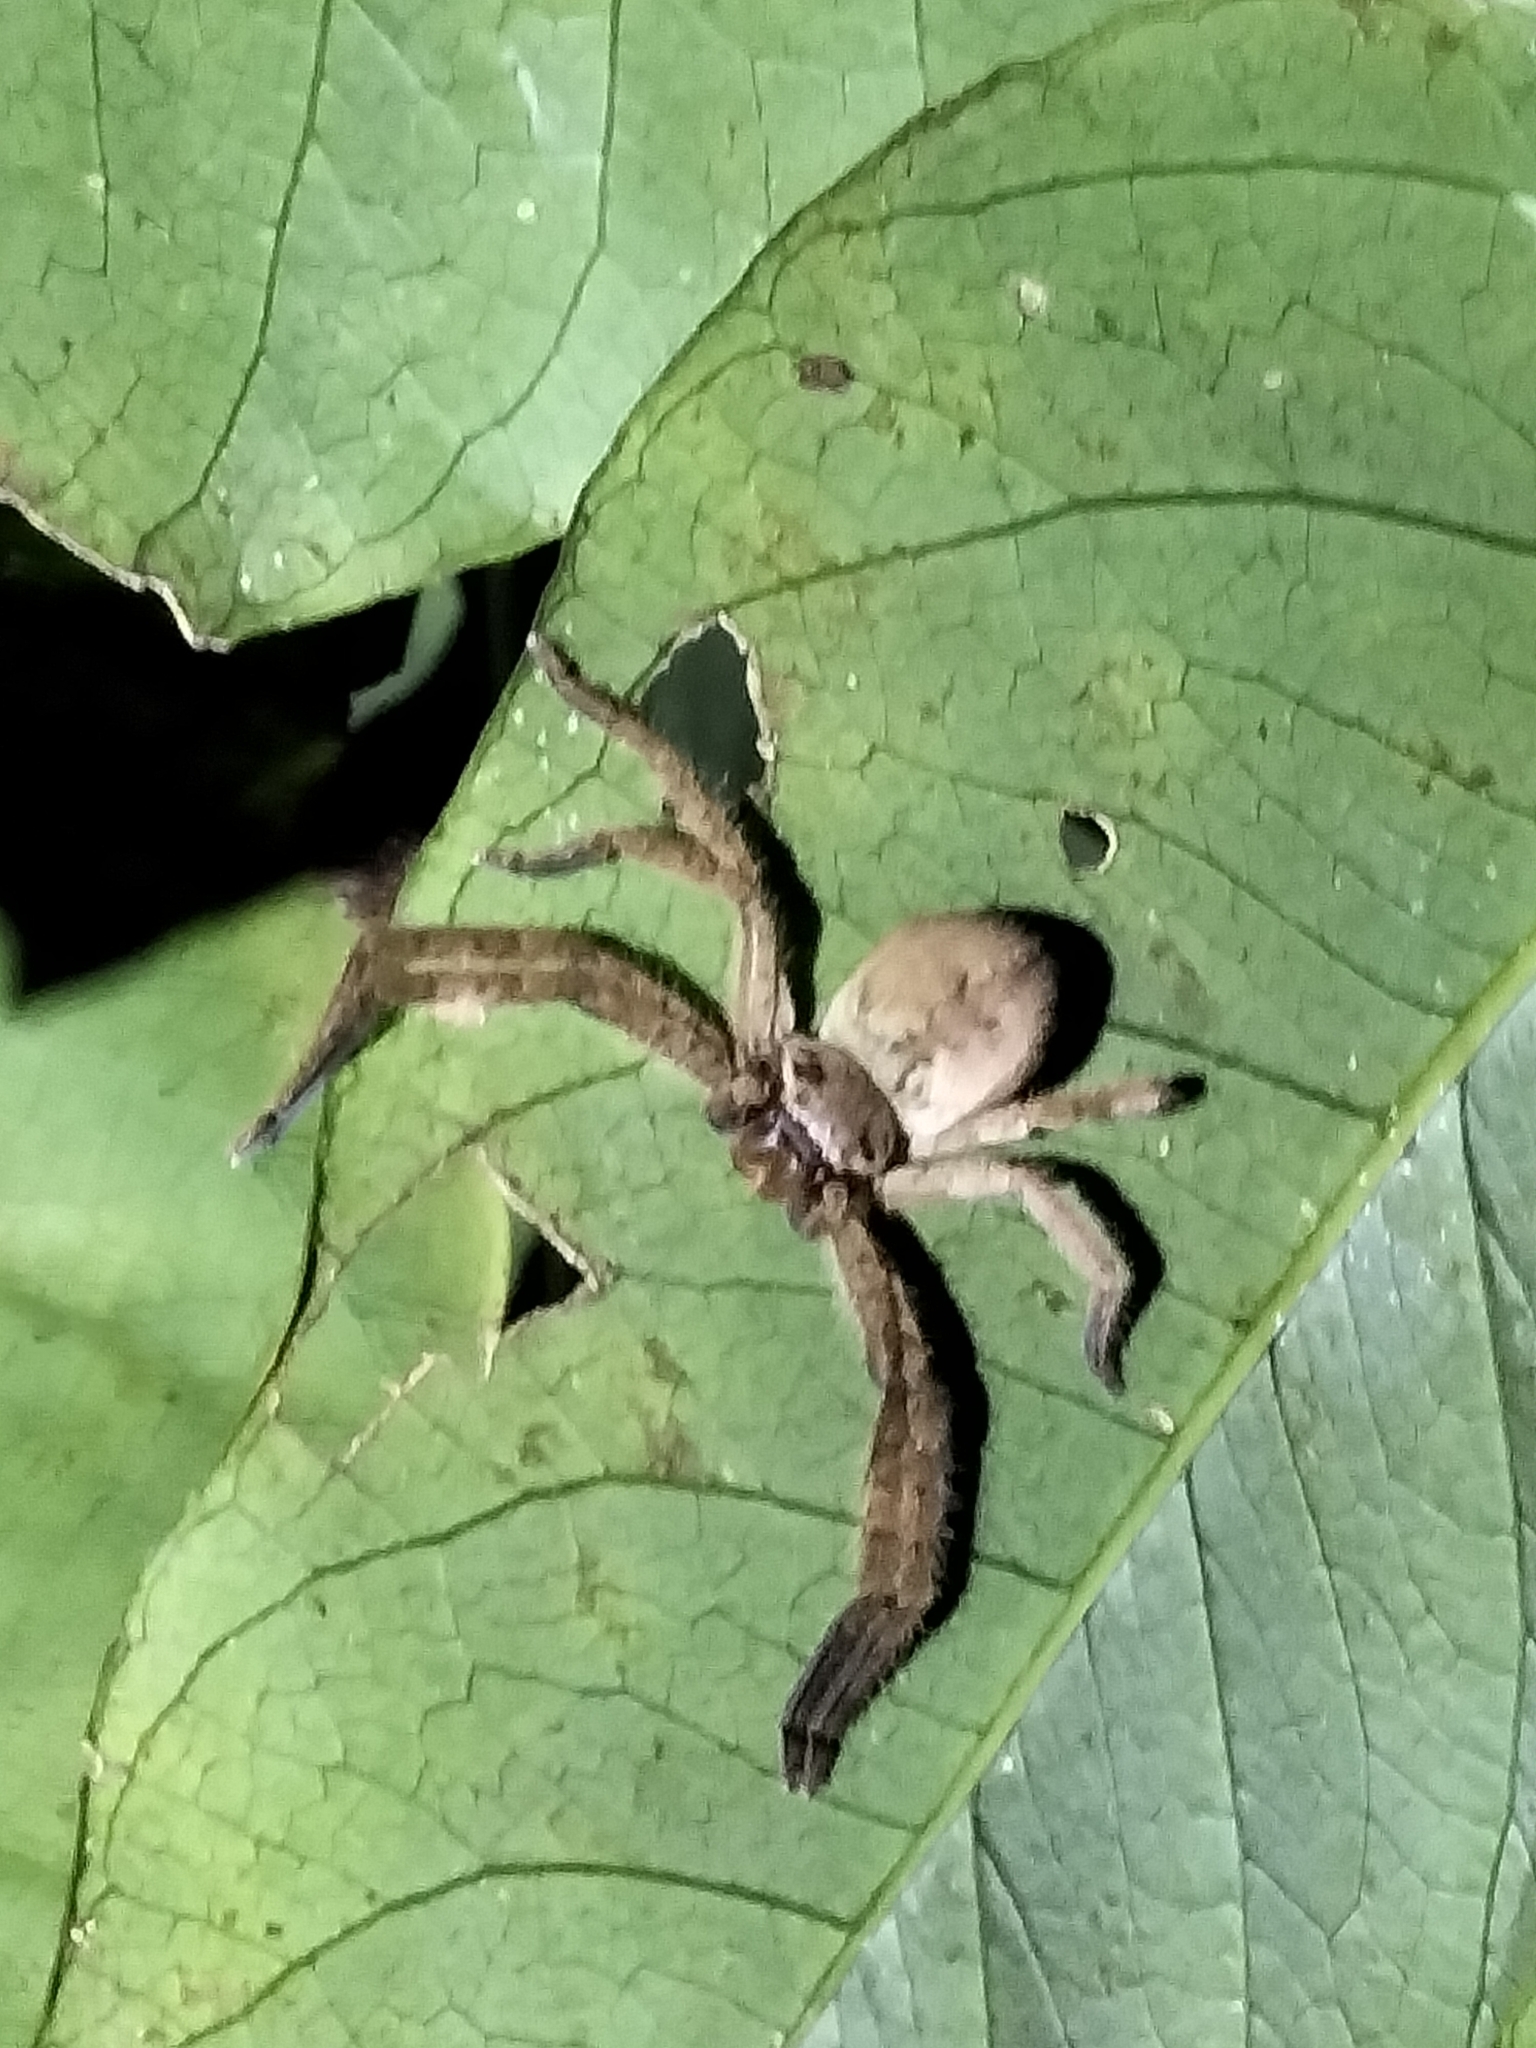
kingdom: Animalia
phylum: Arthropoda
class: Arachnida
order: Araneae
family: Sparassidae
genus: Beregama
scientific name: Beregama cordata
